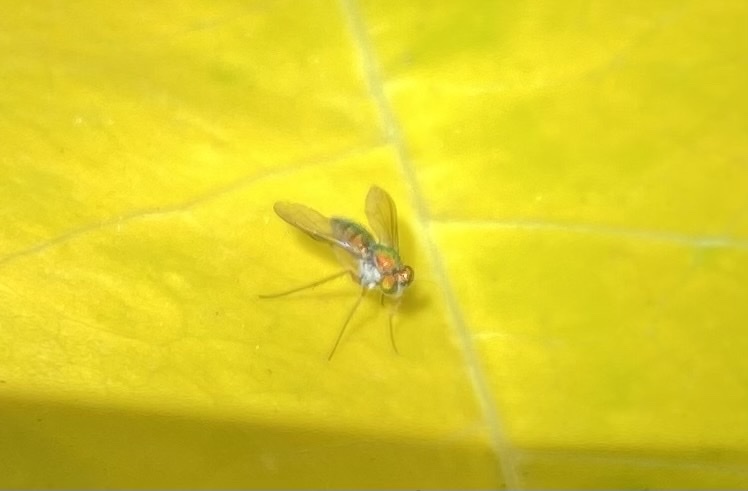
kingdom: Animalia
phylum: Arthropoda
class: Insecta
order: Diptera
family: Dolichopodidae
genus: Chrysosoma
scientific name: Chrysosoma globifer
